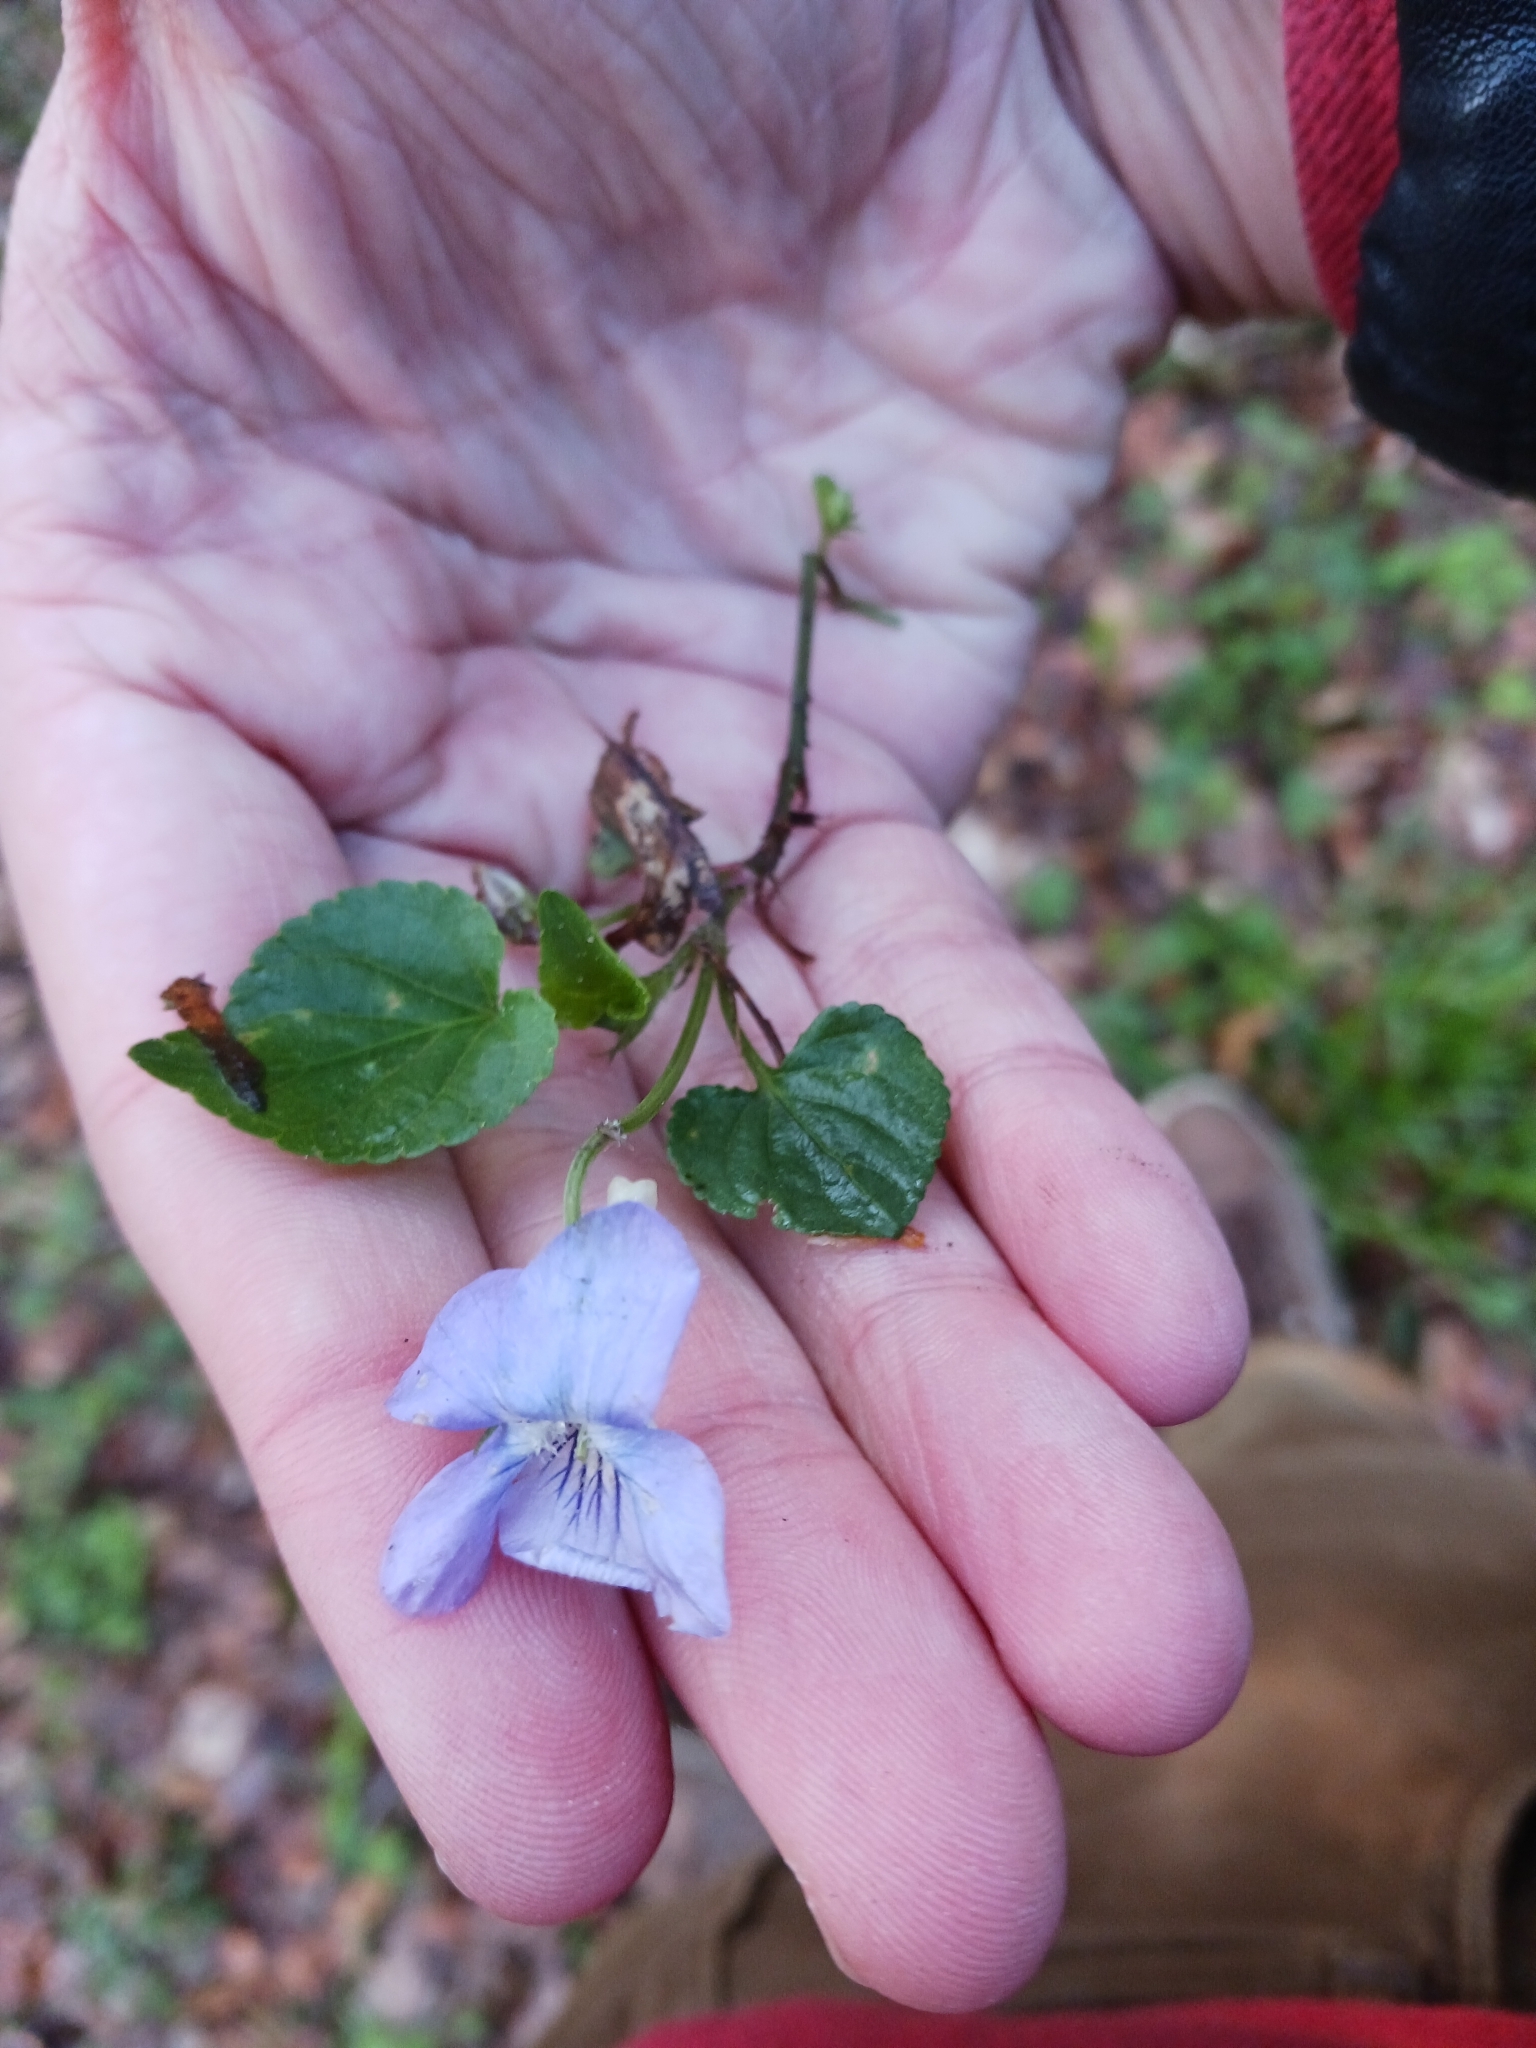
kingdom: Plantae
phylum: Tracheophyta
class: Magnoliopsida
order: Malpighiales
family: Violaceae
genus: Viola
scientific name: Viola riviniana
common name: Common dog-violet
